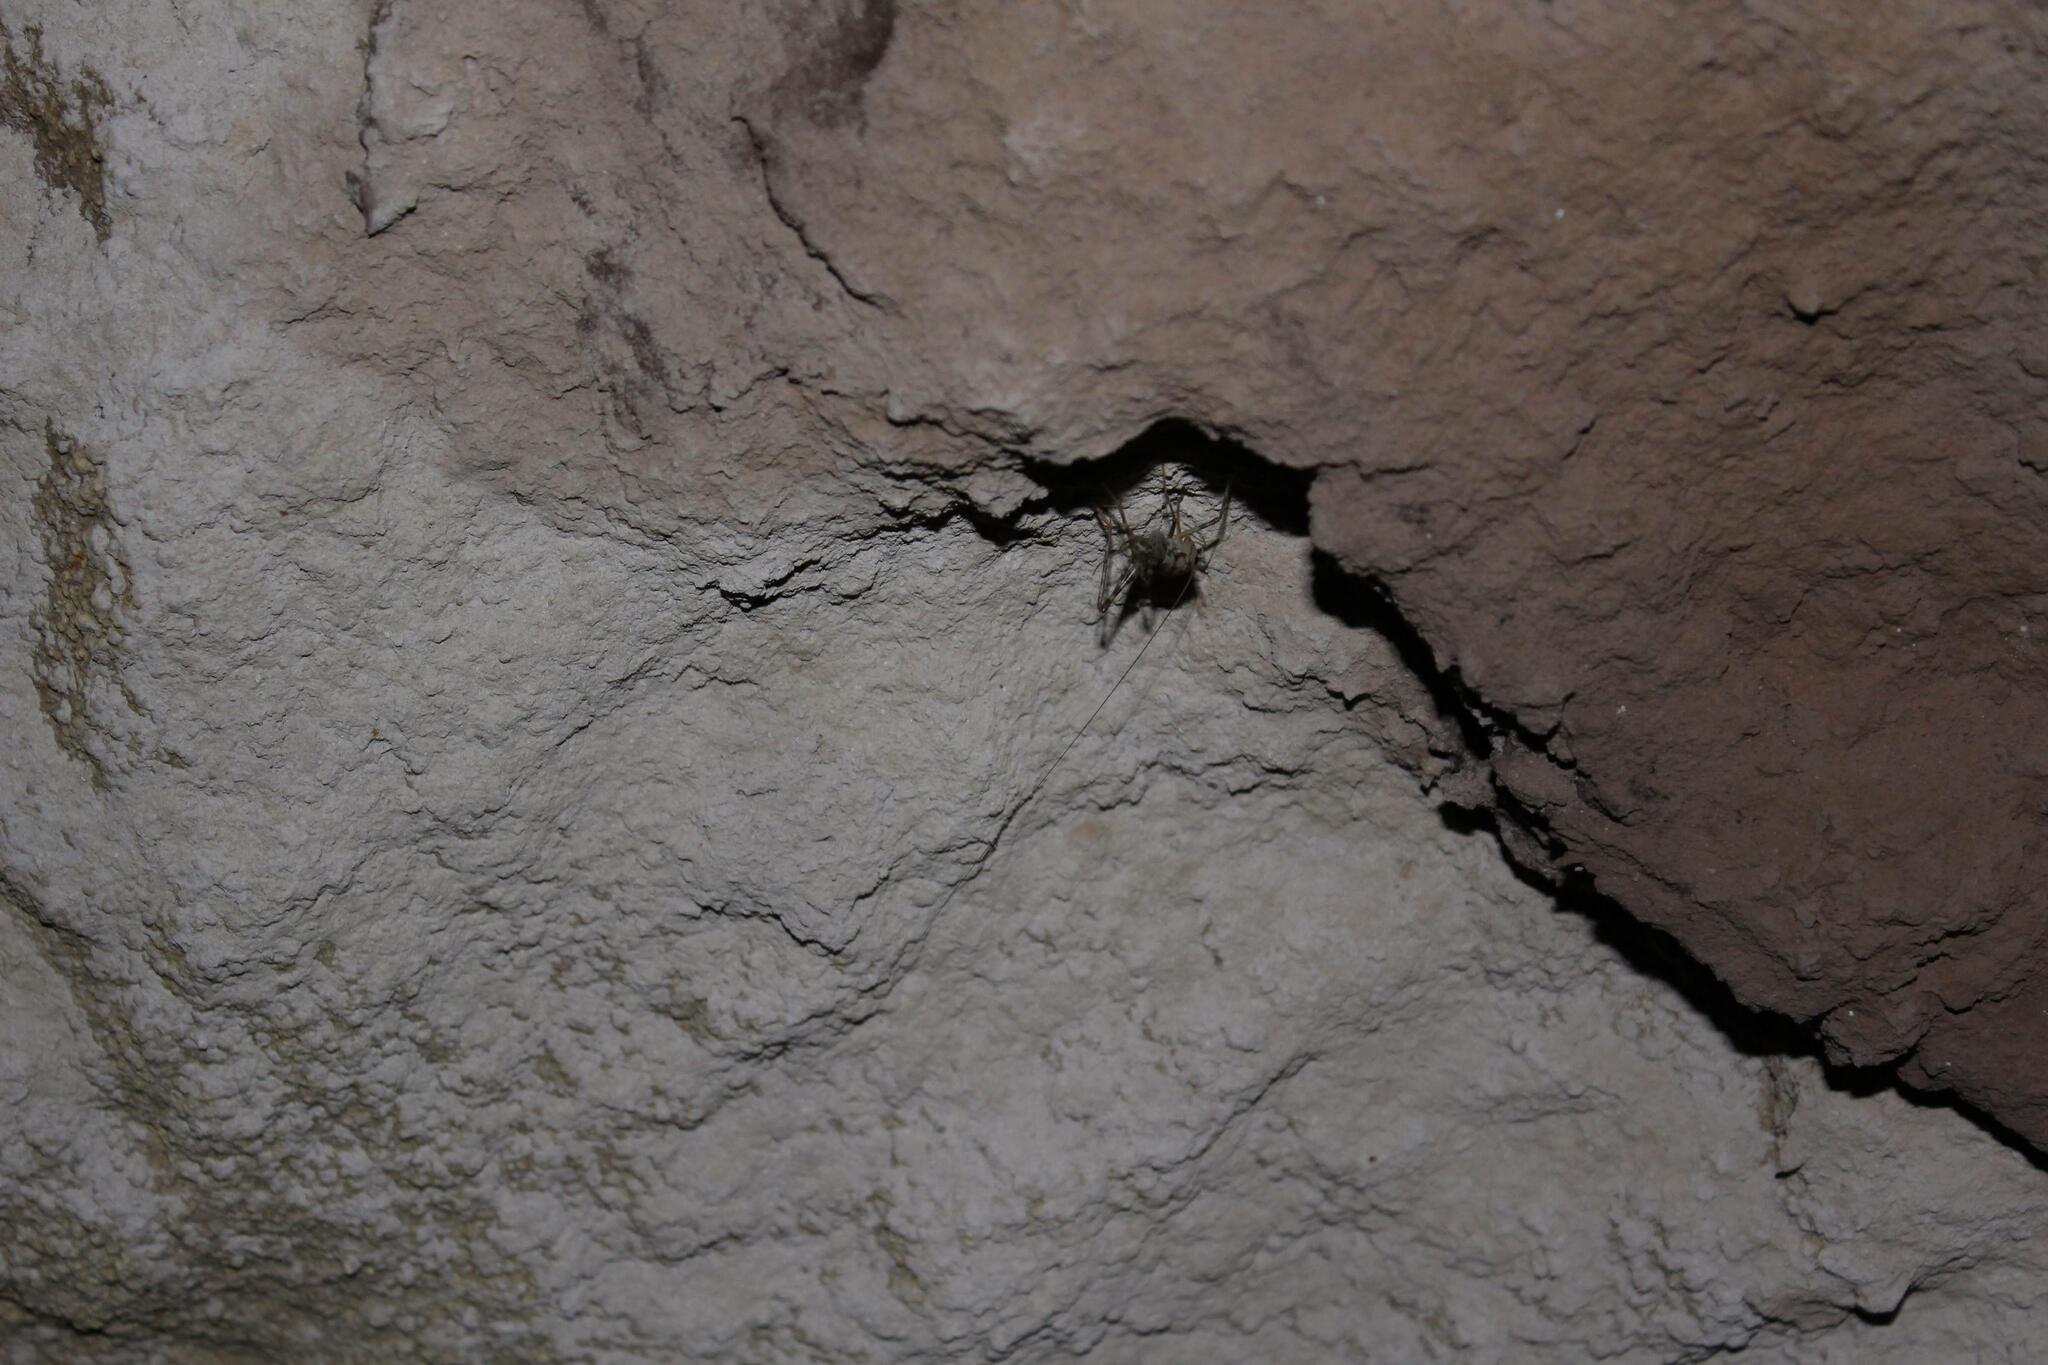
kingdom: Animalia
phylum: Arthropoda
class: Insecta
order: Orthoptera
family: Rhaphidophoridae
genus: Tachycines
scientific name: Tachycines asynamorus
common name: Greenhouse camel cricket
